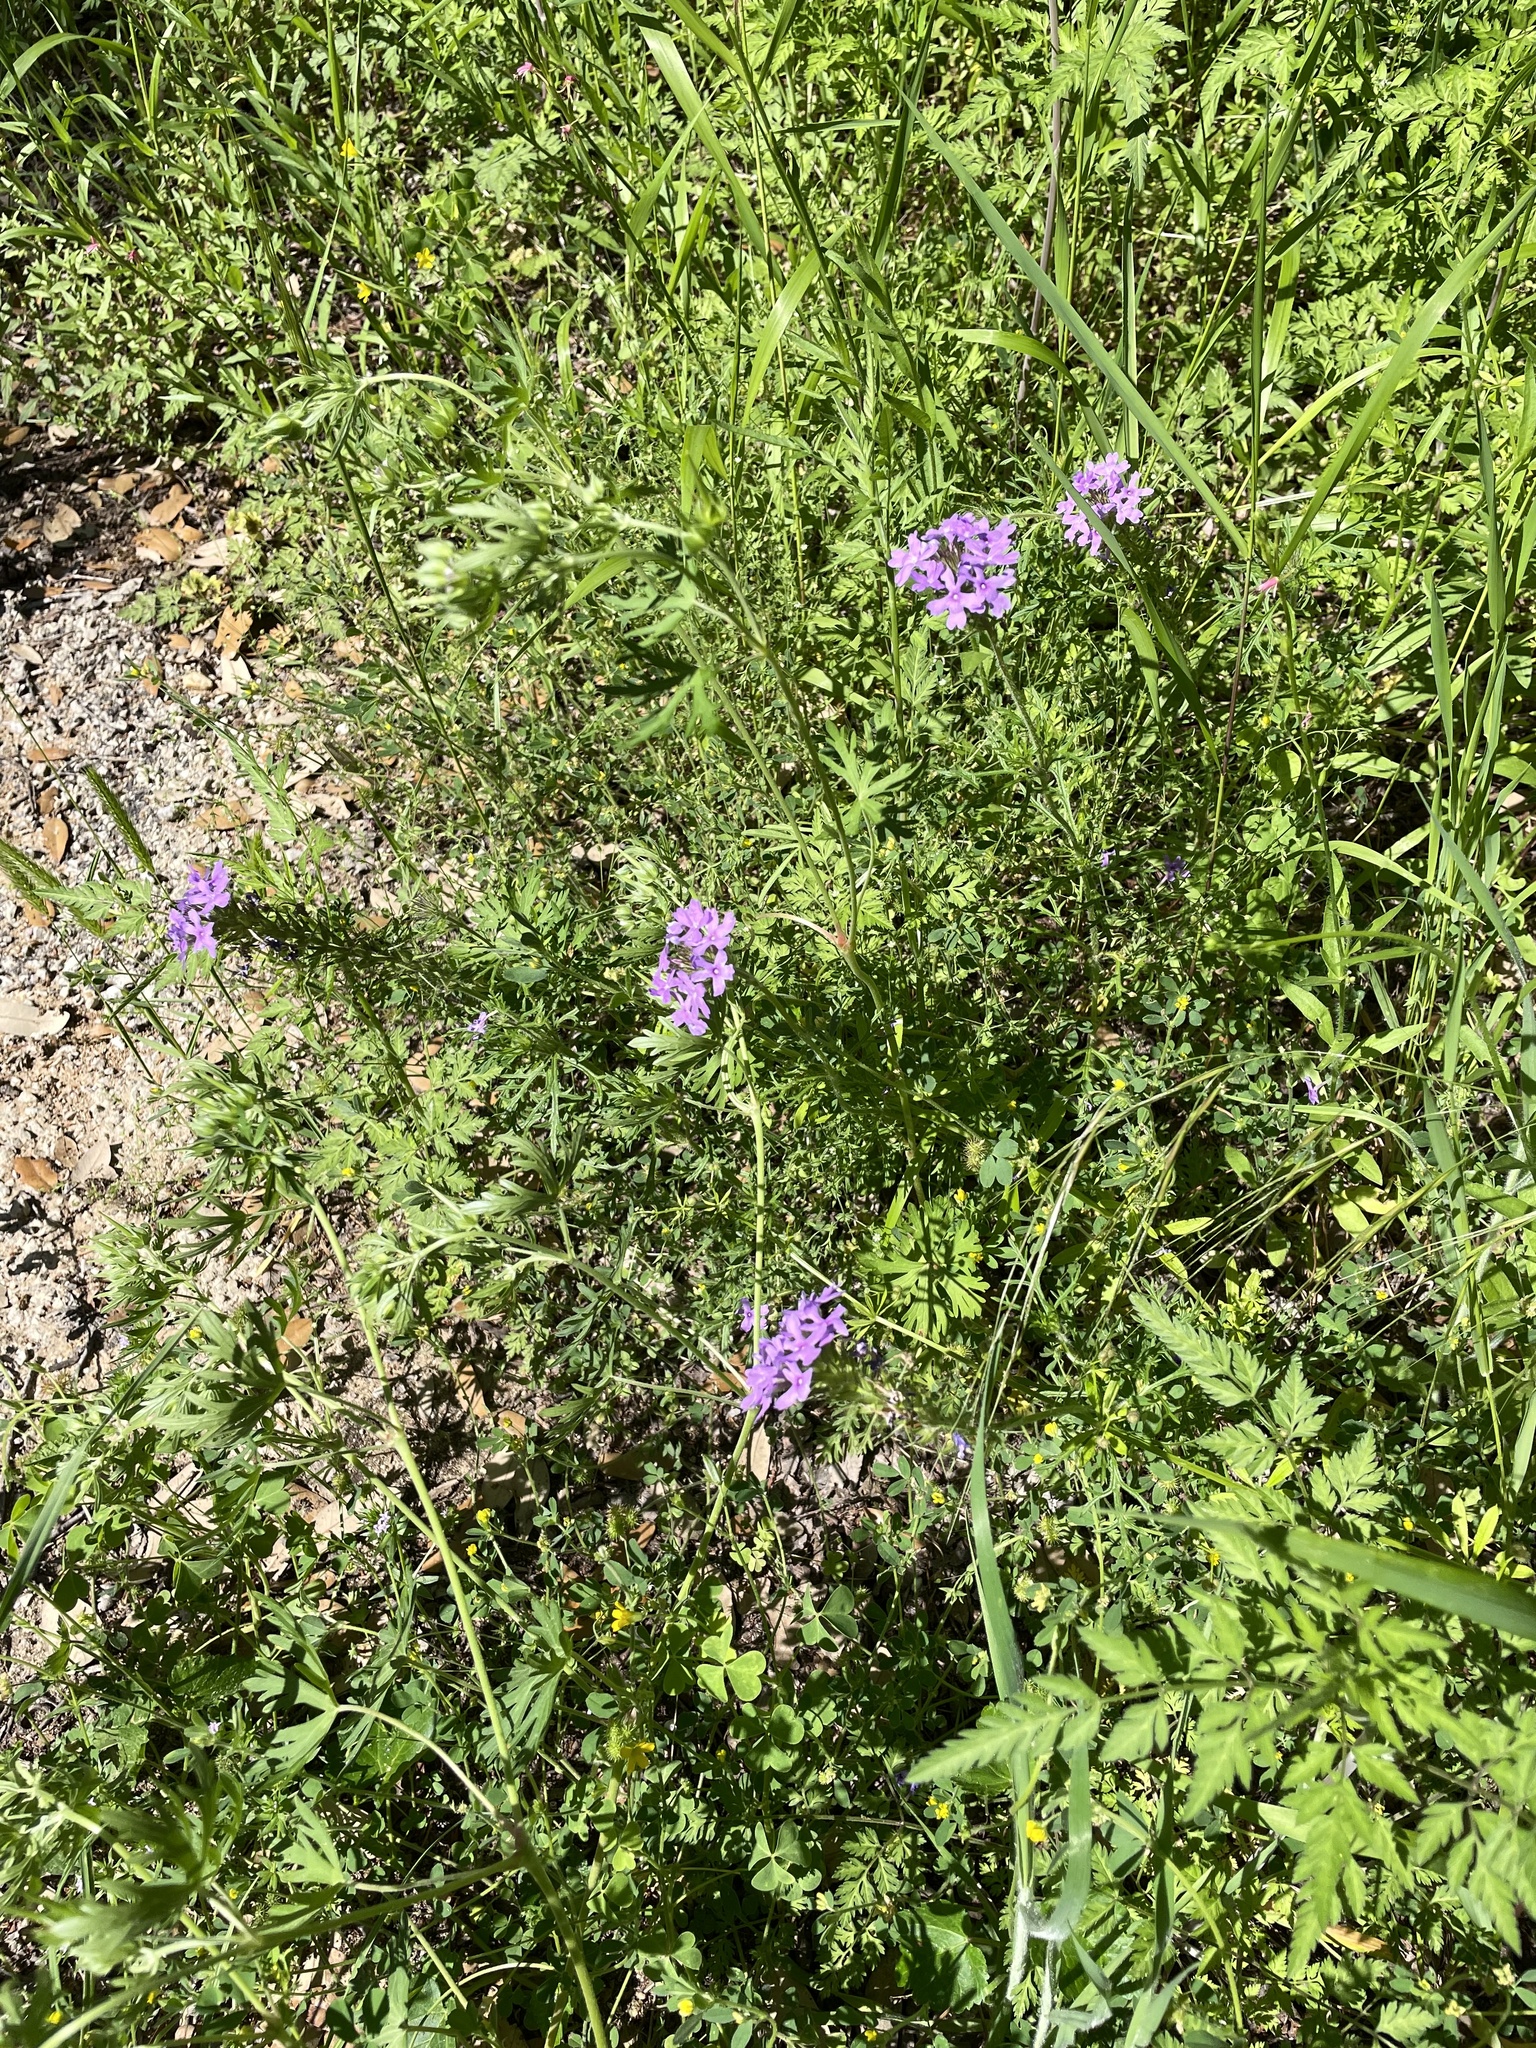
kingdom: Plantae
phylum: Tracheophyta
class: Magnoliopsida
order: Lamiales
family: Verbenaceae
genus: Verbena
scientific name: Verbena bipinnatifida
